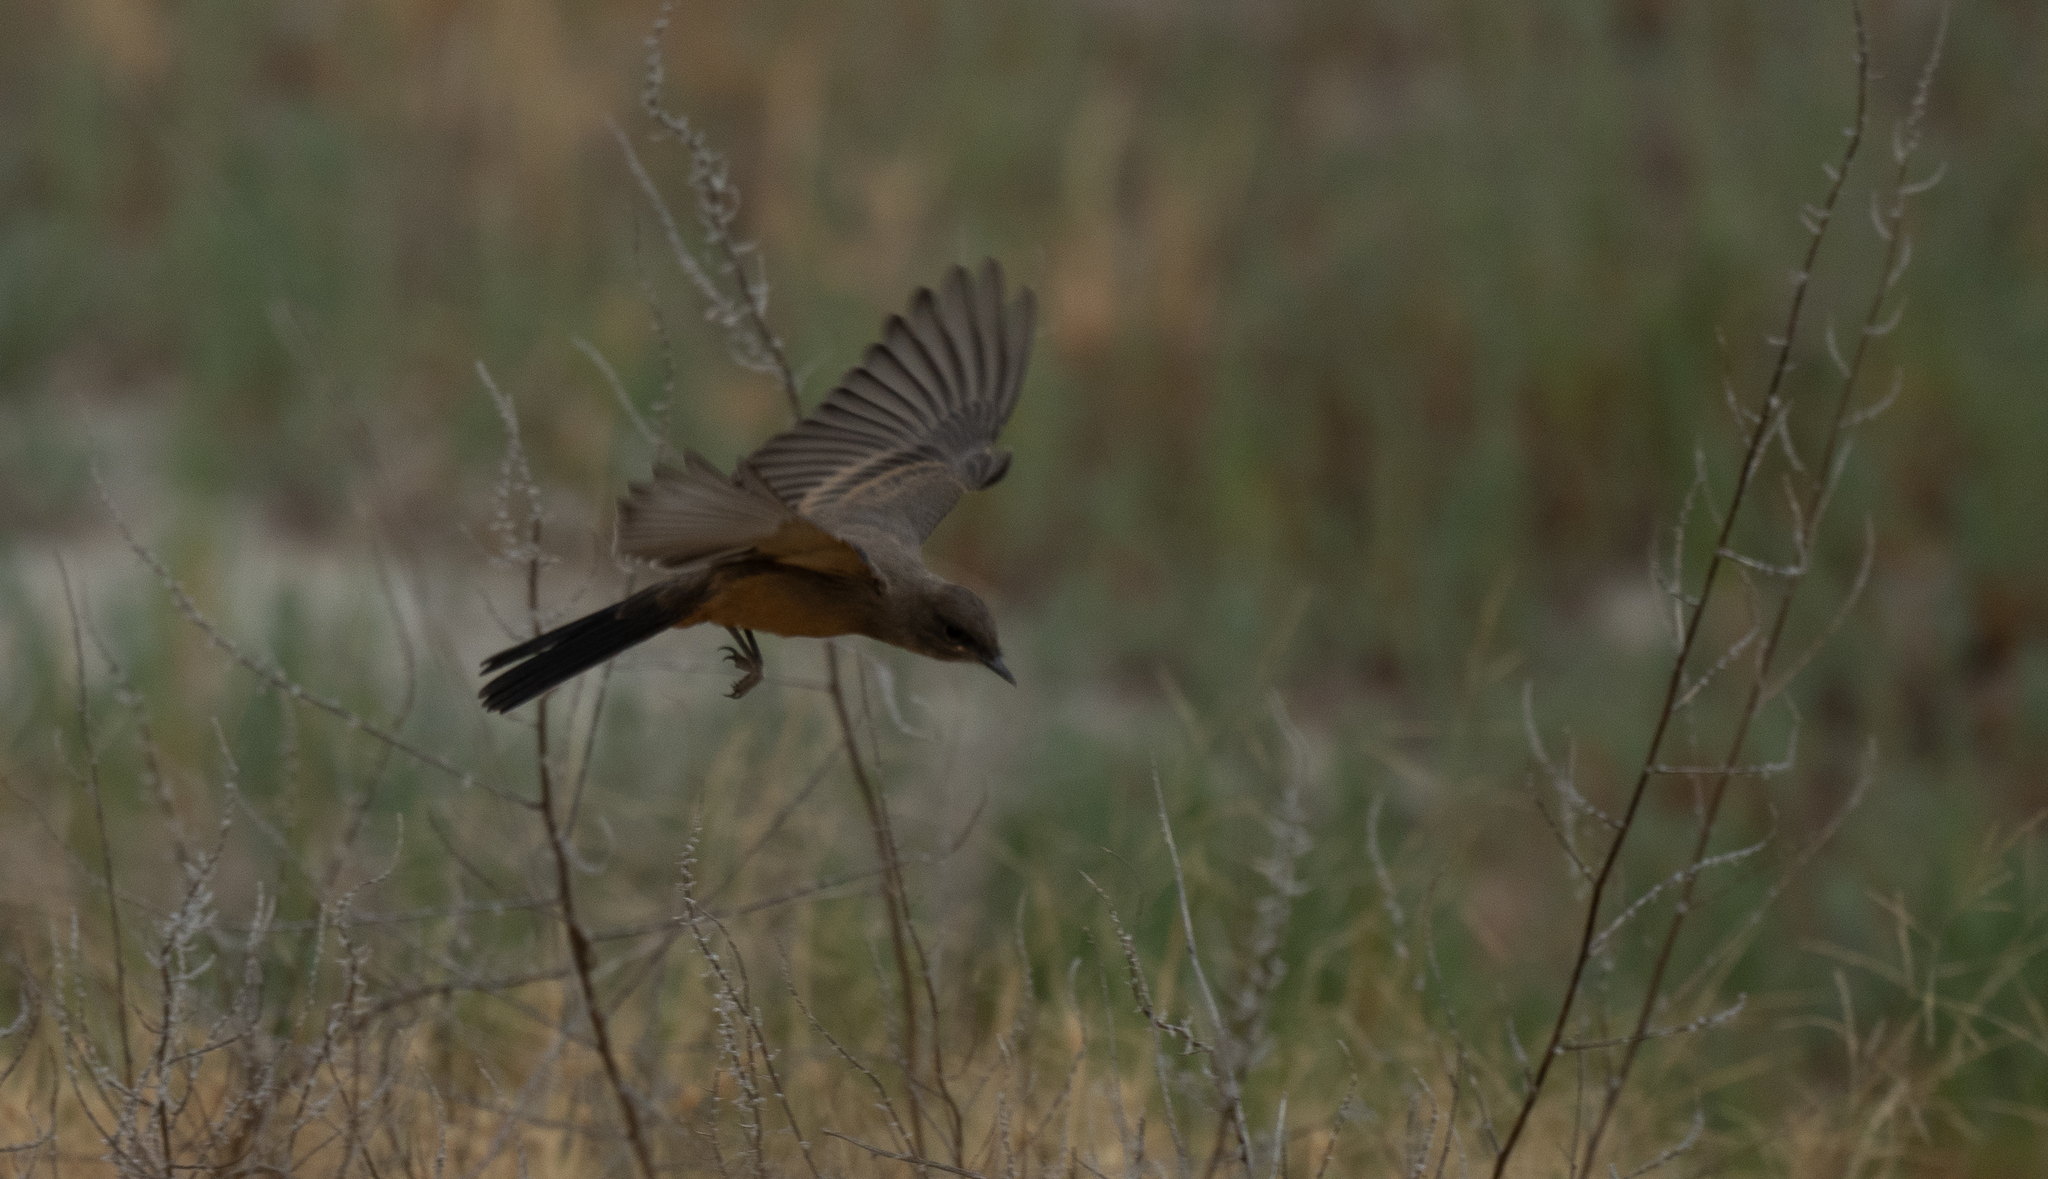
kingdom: Animalia
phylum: Chordata
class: Aves
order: Passeriformes
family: Tyrannidae
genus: Sayornis
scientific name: Sayornis saya
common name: Say's phoebe
